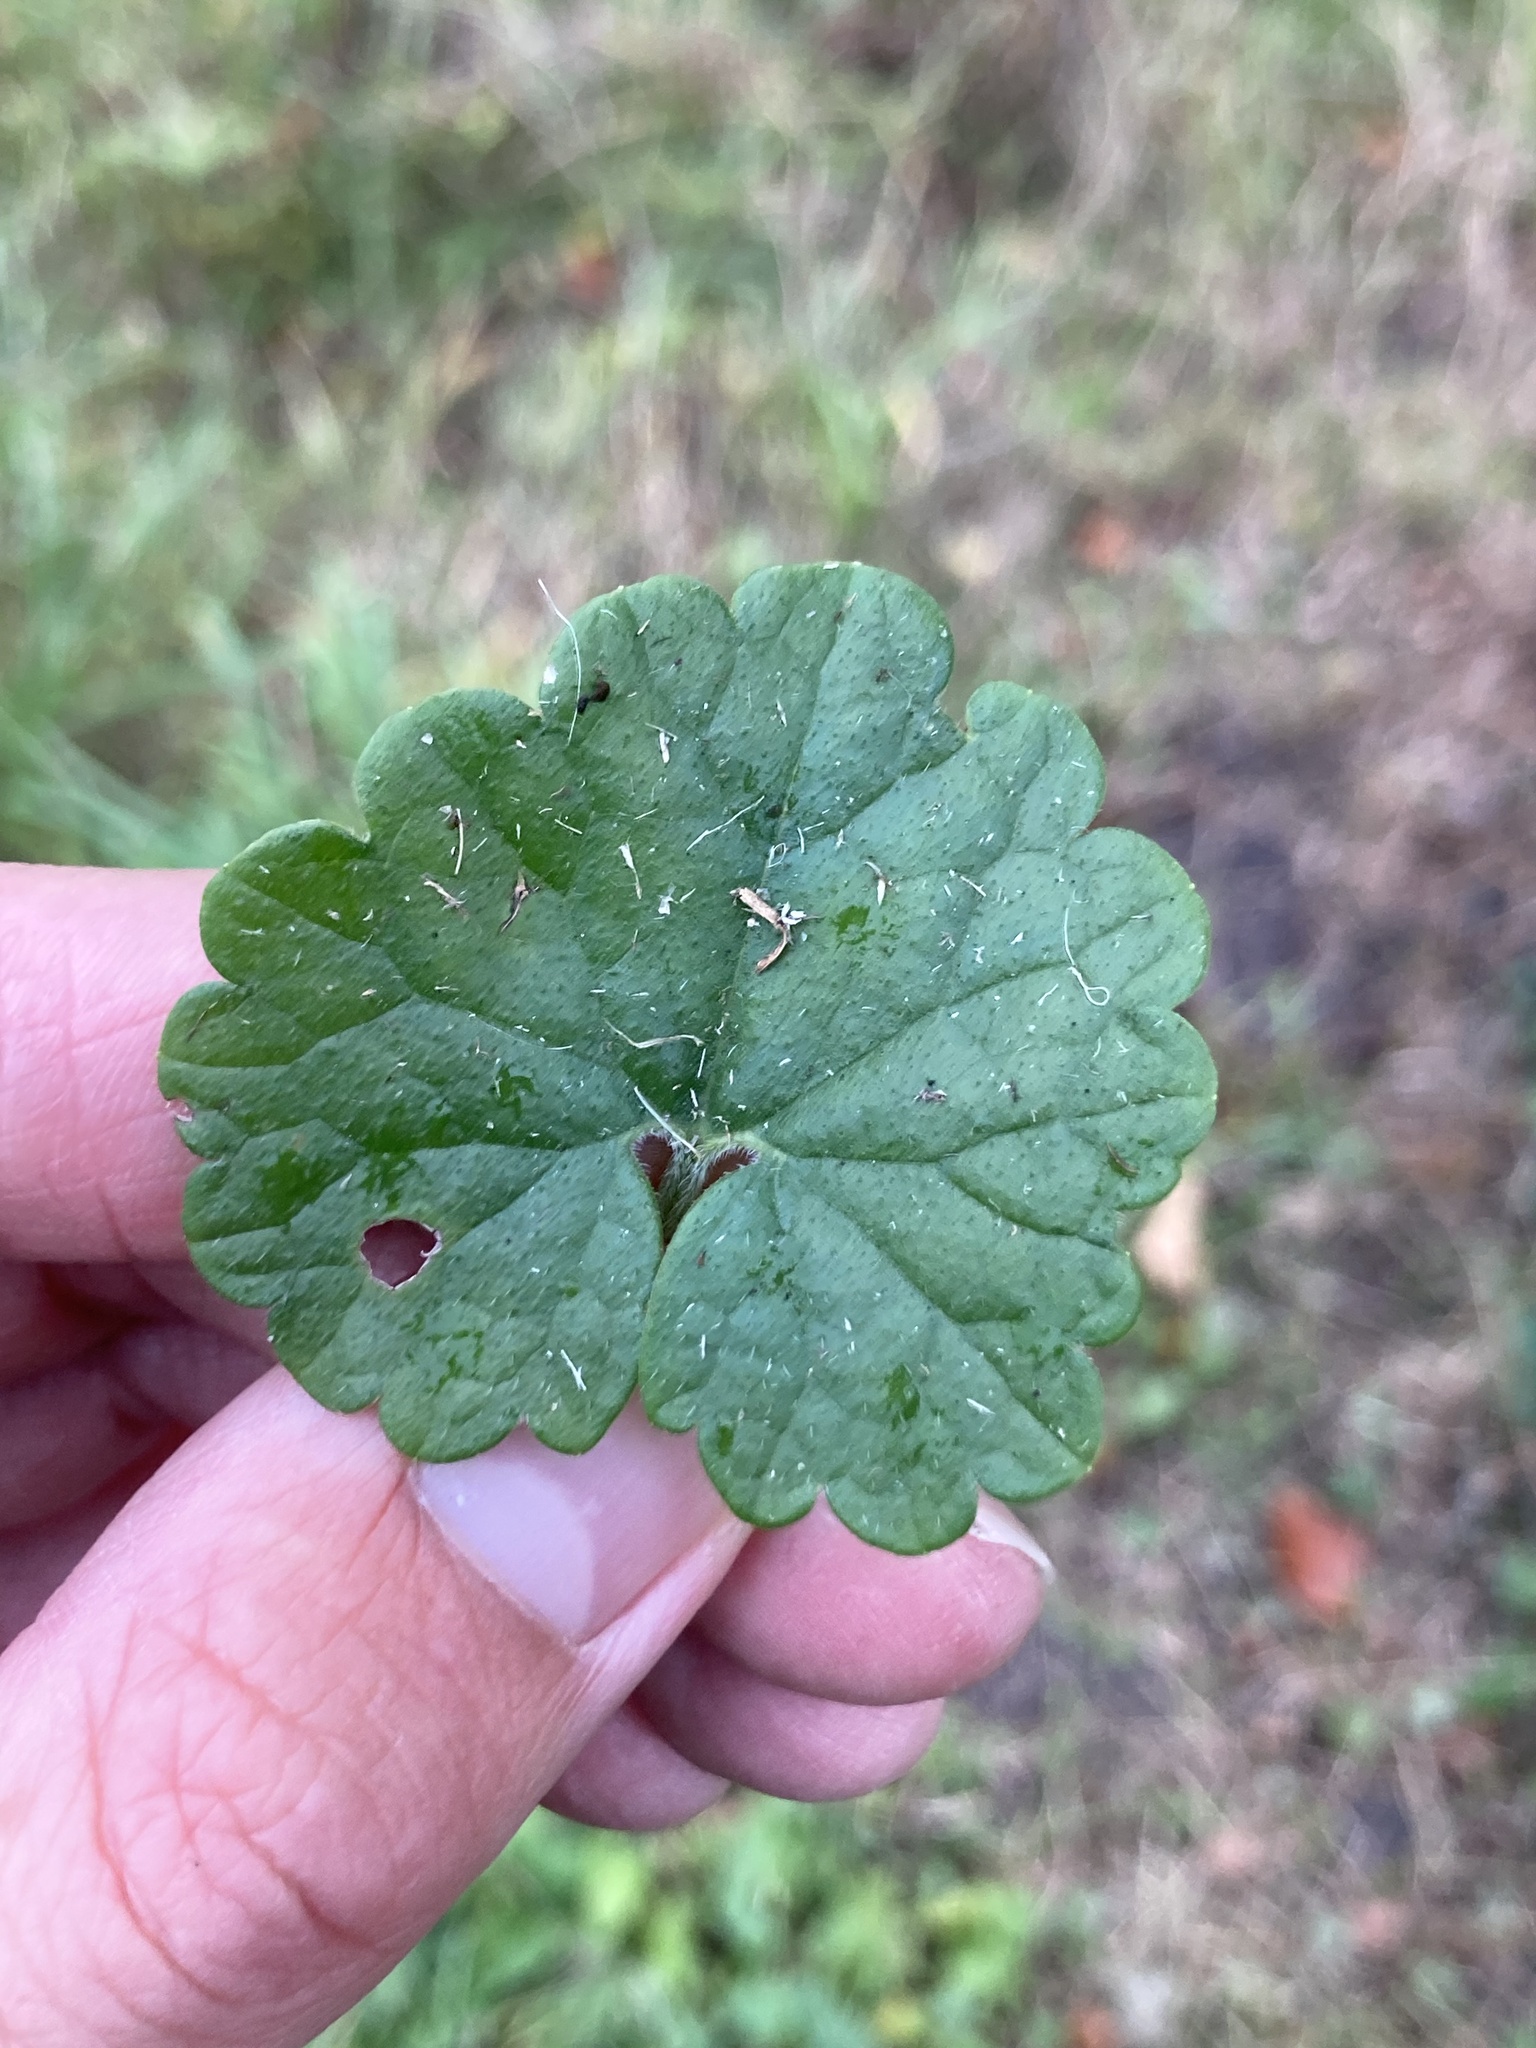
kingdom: Plantae
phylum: Tracheophyta
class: Magnoliopsida
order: Lamiales
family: Lamiaceae
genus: Glechoma
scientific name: Glechoma hederacea
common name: Ground ivy
